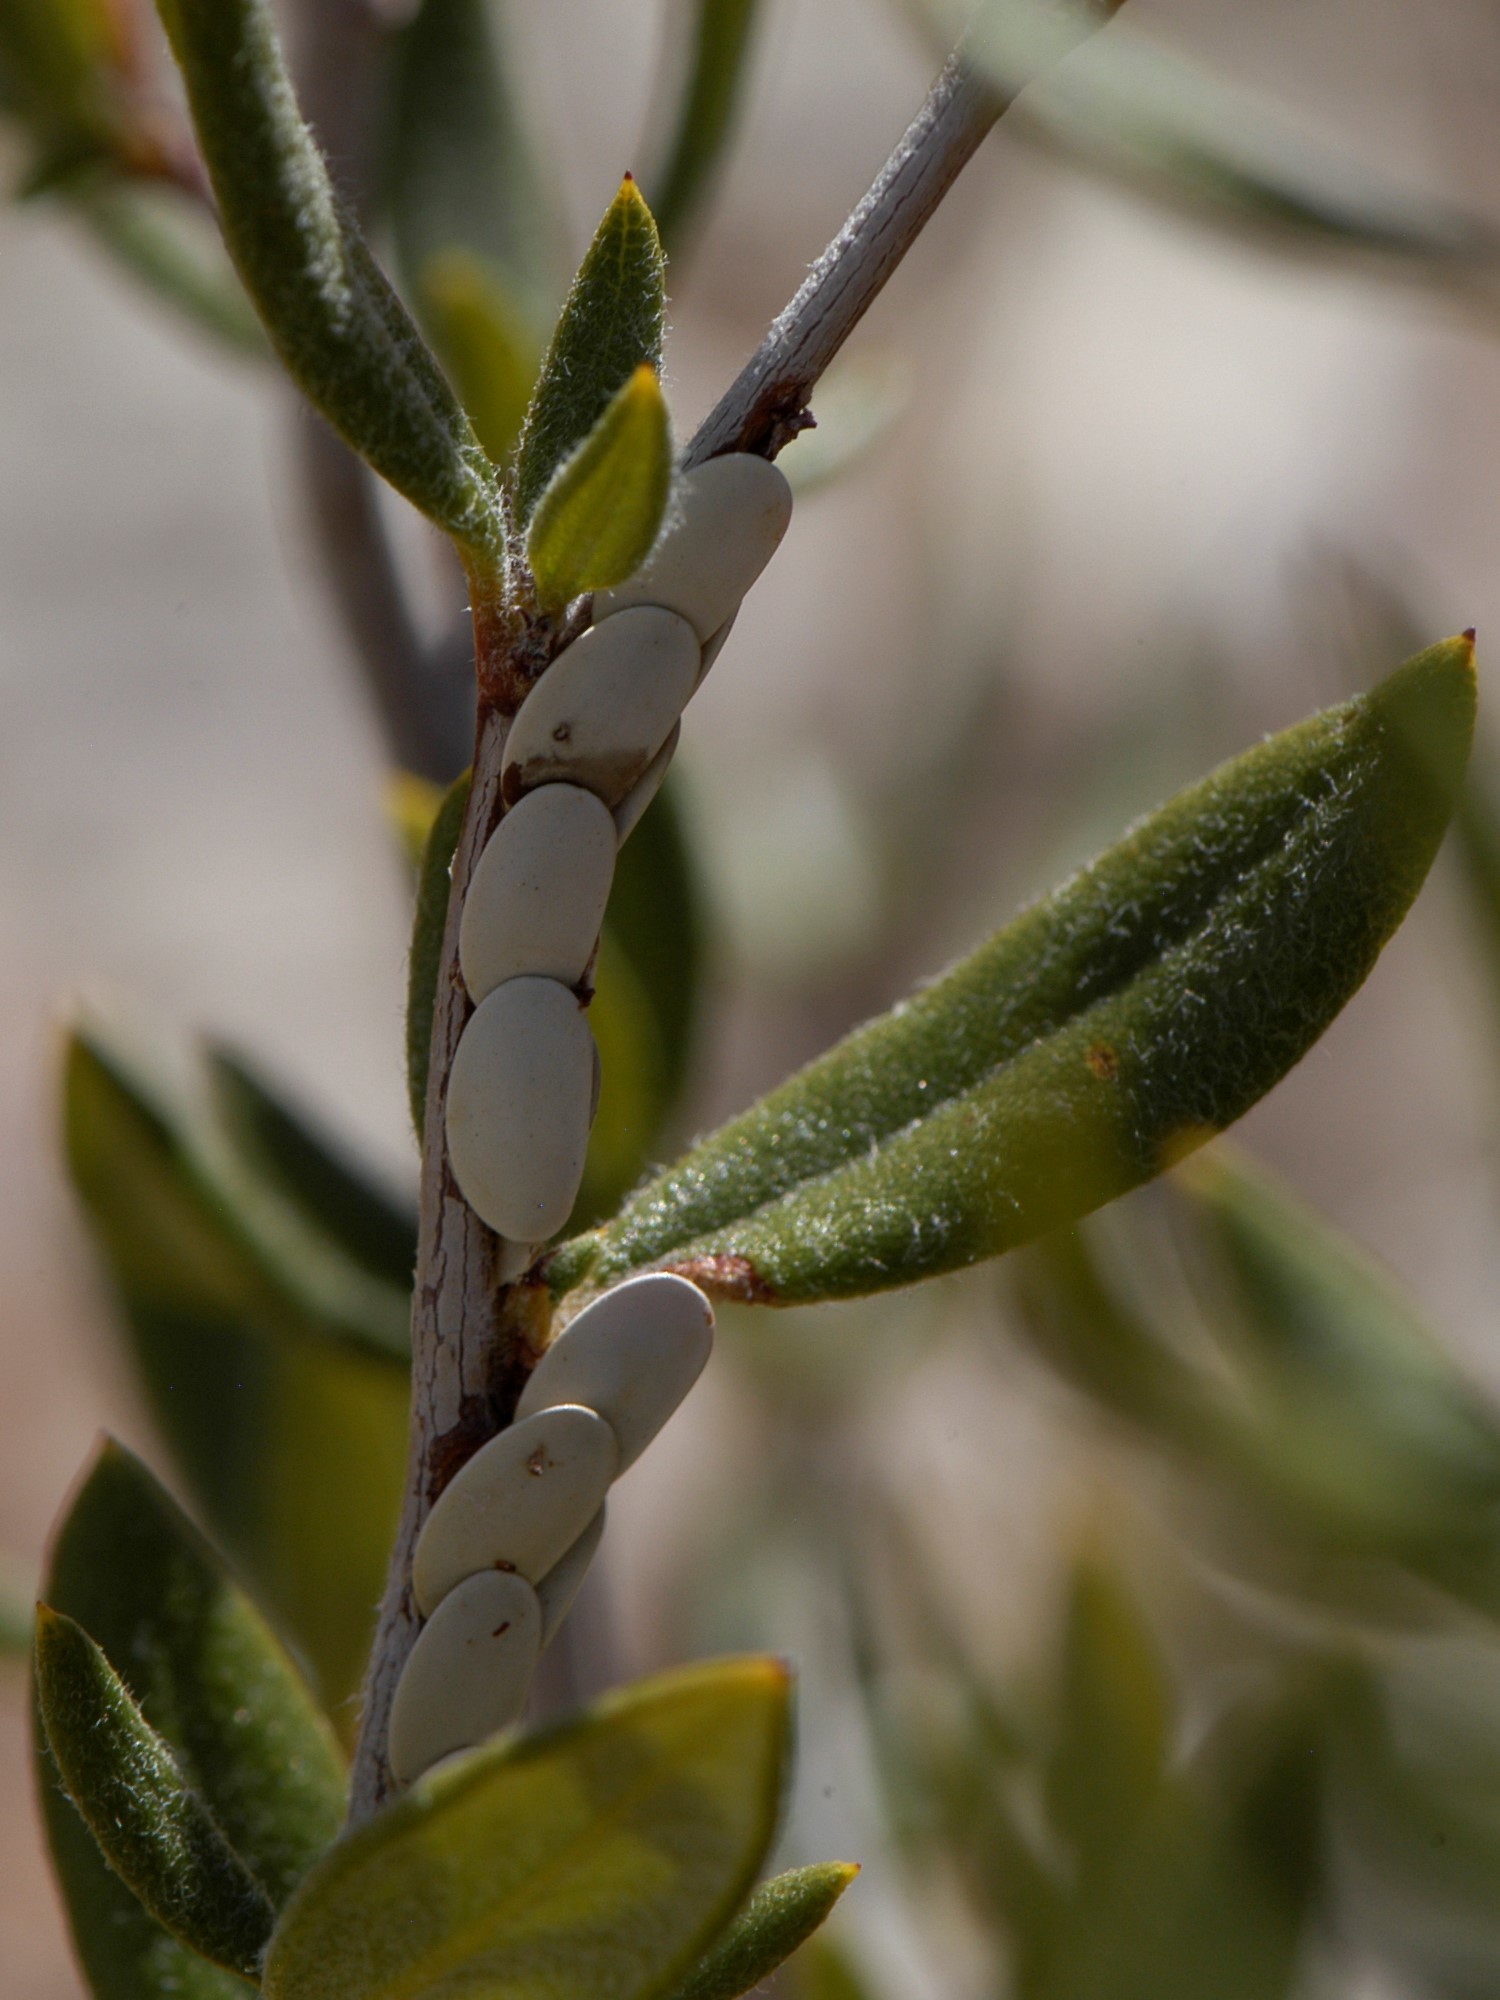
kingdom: Animalia
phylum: Arthropoda
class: Insecta
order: Orthoptera
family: Tettigoniidae
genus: Microcentrum
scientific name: Microcentrum rhombifolium
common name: Broad-winged katydid
